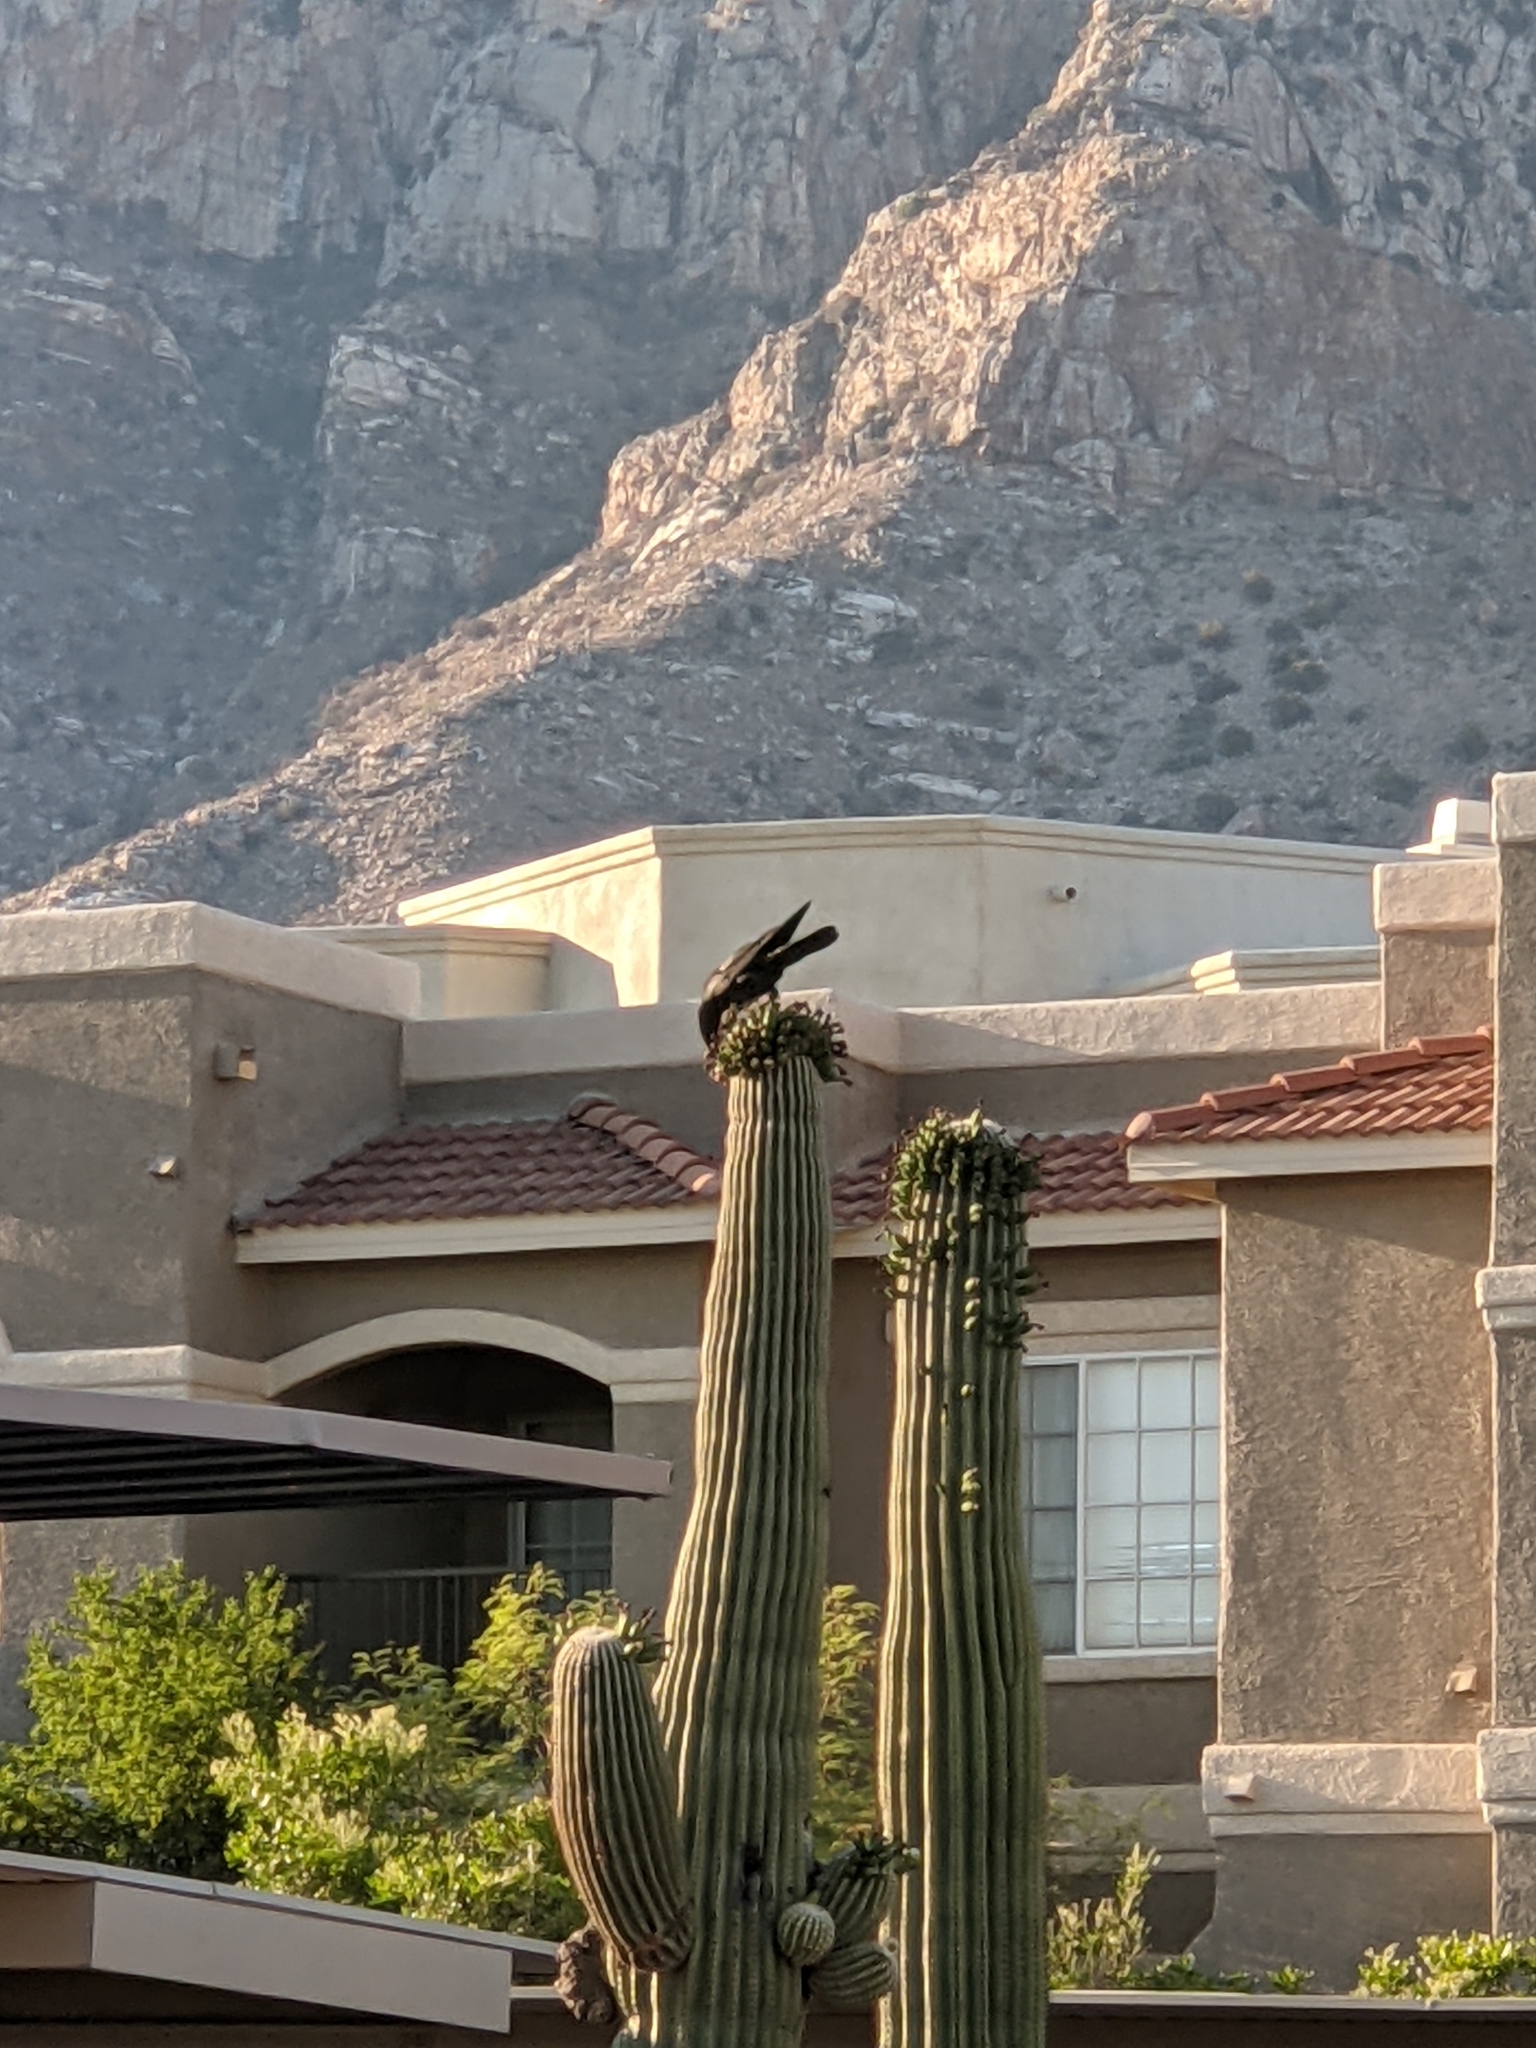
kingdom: Animalia
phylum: Chordata
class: Aves
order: Passeriformes
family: Corvidae
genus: Corvus
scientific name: Corvus corax
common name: Common raven
